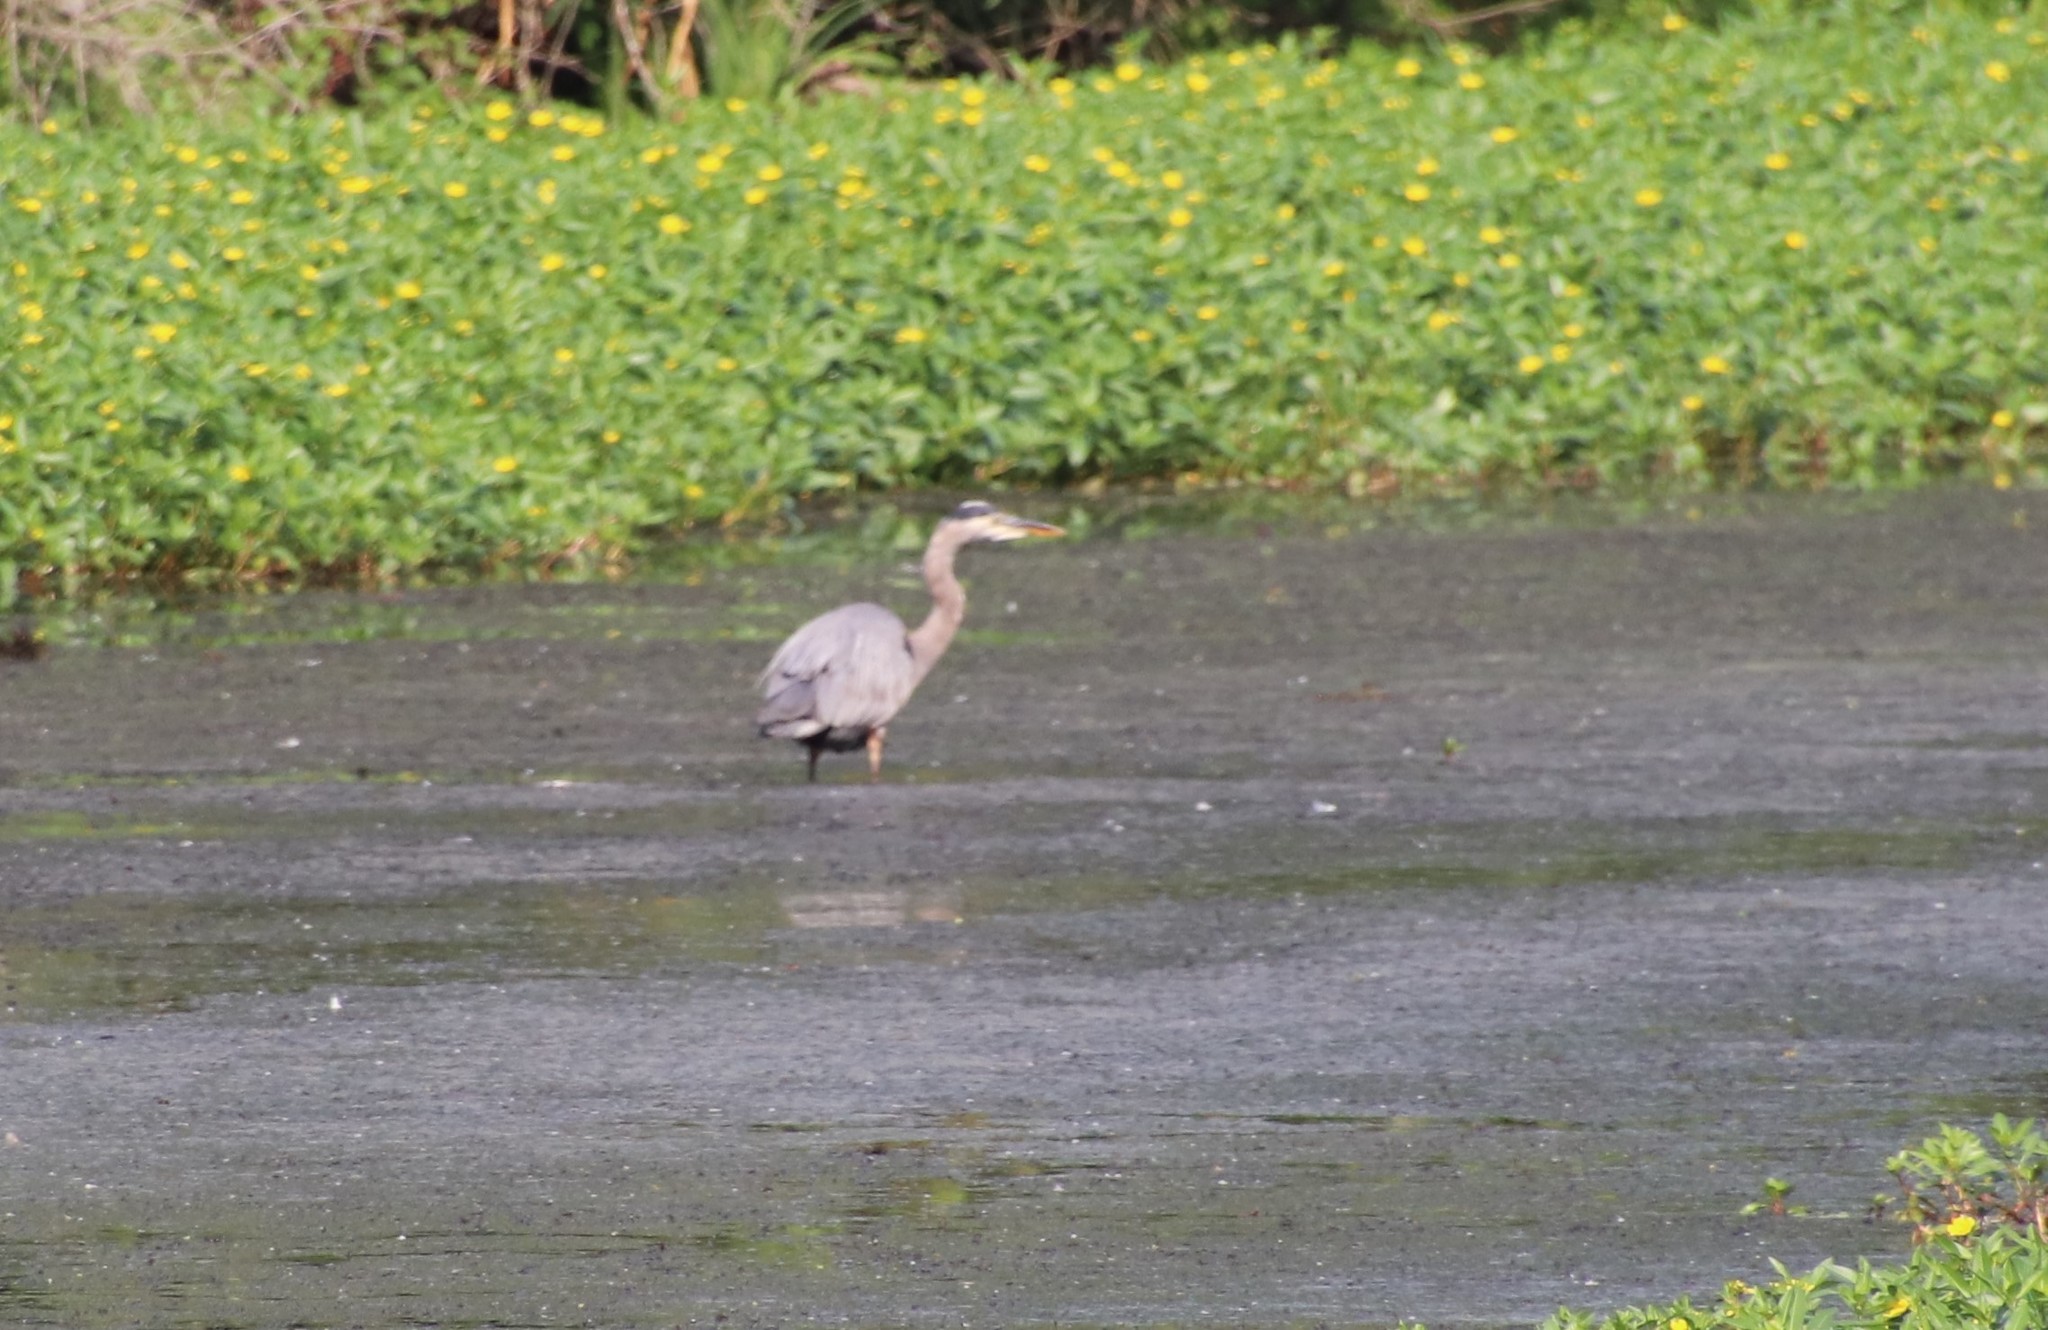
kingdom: Animalia
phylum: Chordata
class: Aves
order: Pelecaniformes
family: Ardeidae
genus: Ardea
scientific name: Ardea herodias
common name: Great blue heron
